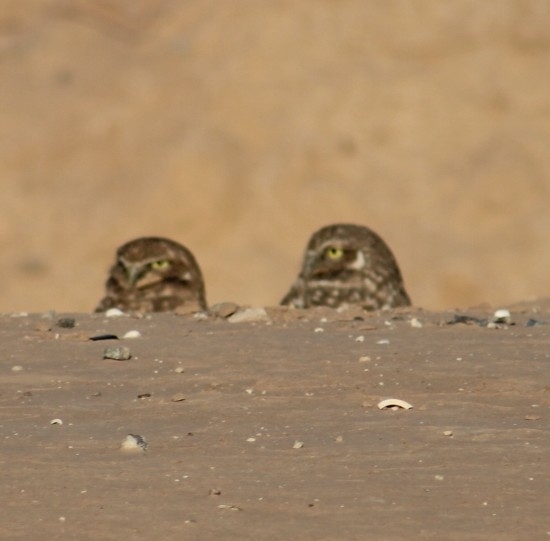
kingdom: Animalia
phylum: Chordata
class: Aves
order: Strigiformes
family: Strigidae
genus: Athene
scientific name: Athene cunicularia
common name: Burrowing owl
